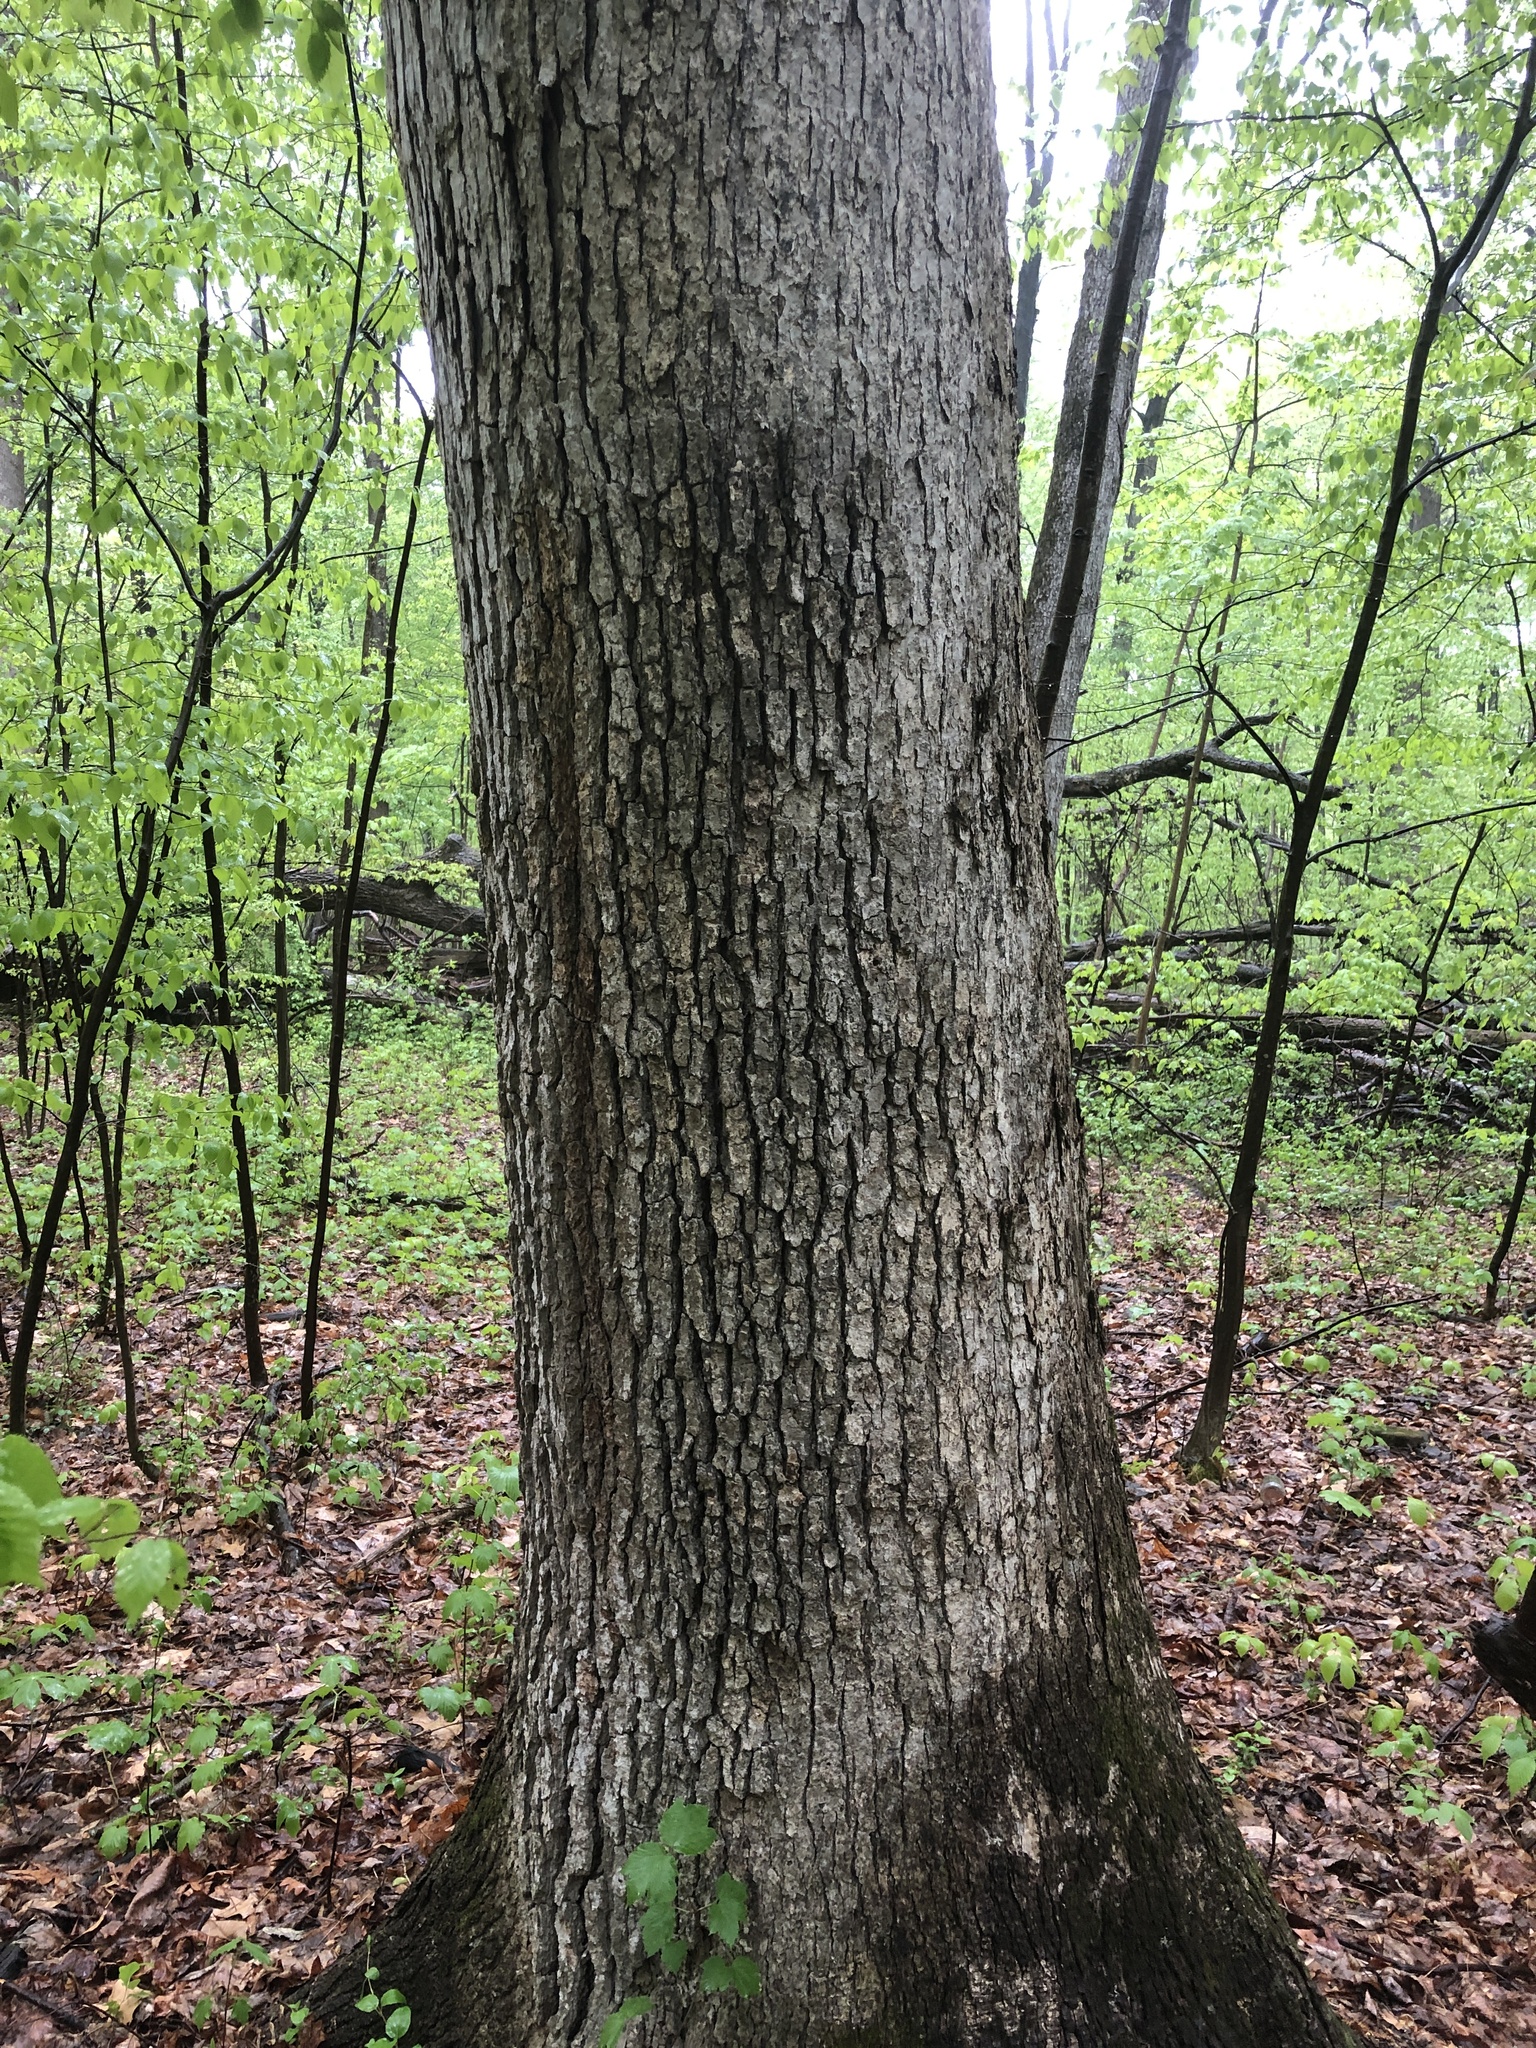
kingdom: Fungi
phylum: Basidiomycota
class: Agaricomycetes
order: Russulales
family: Stereaceae
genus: Acanthophysium
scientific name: Acanthophysium oakesii
